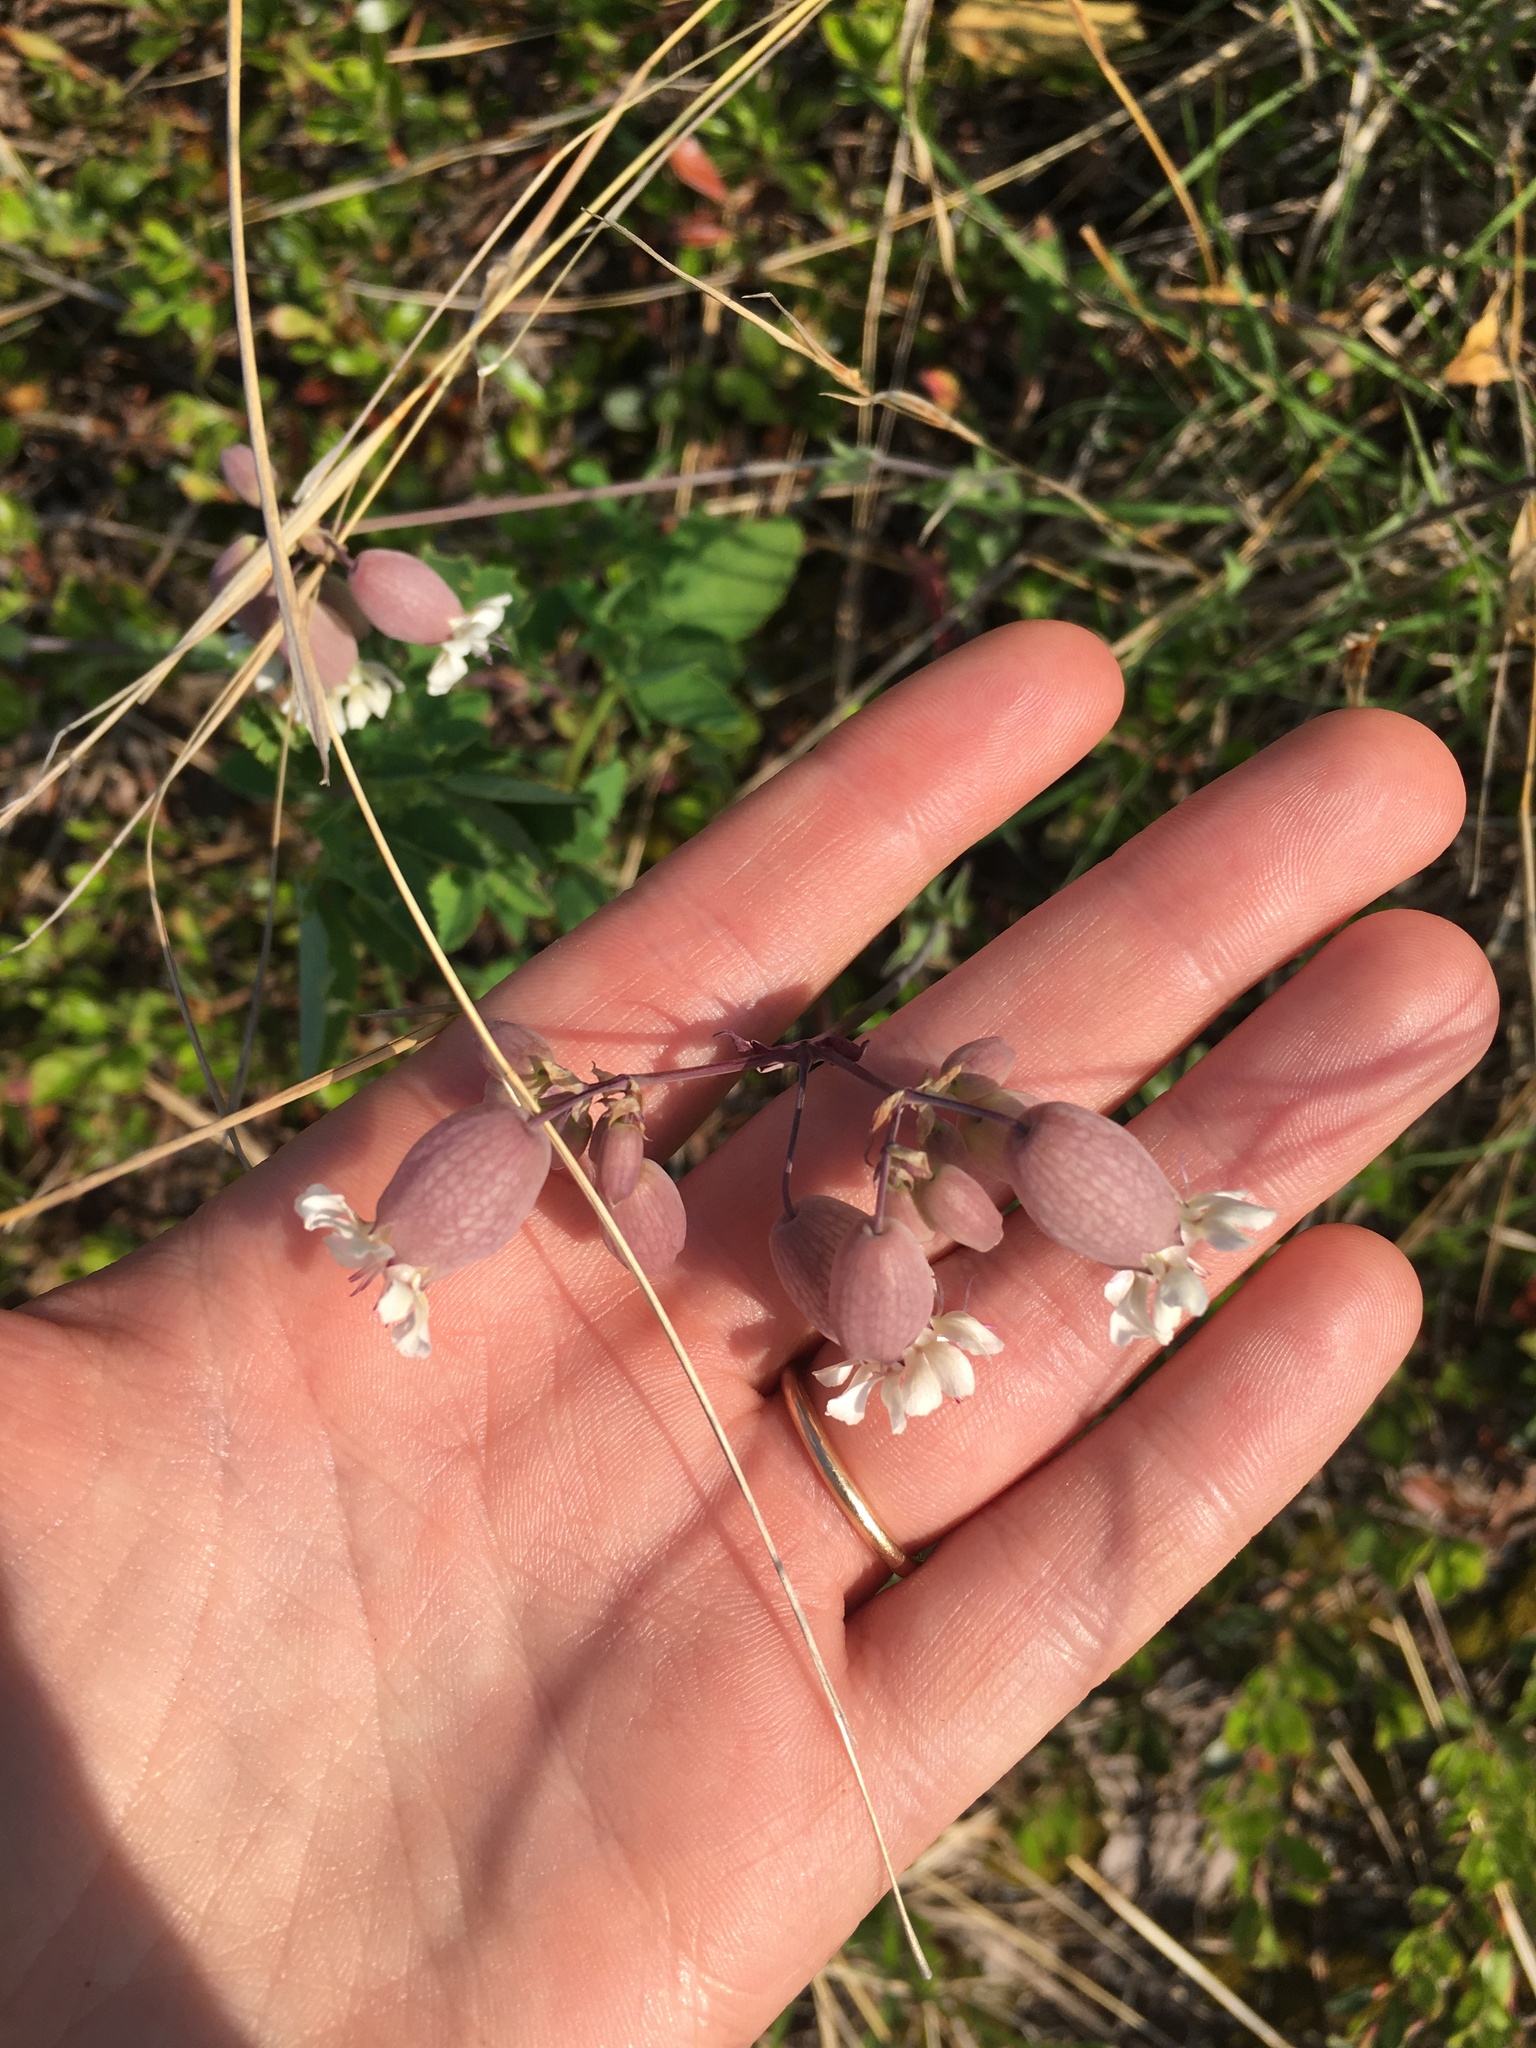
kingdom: Plantae
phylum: Tracheophyta
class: Magnoliopsida
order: Caryophyllales
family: Caryophyllaceae
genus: Silene
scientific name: Silene vulgaris
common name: Bladder campion
